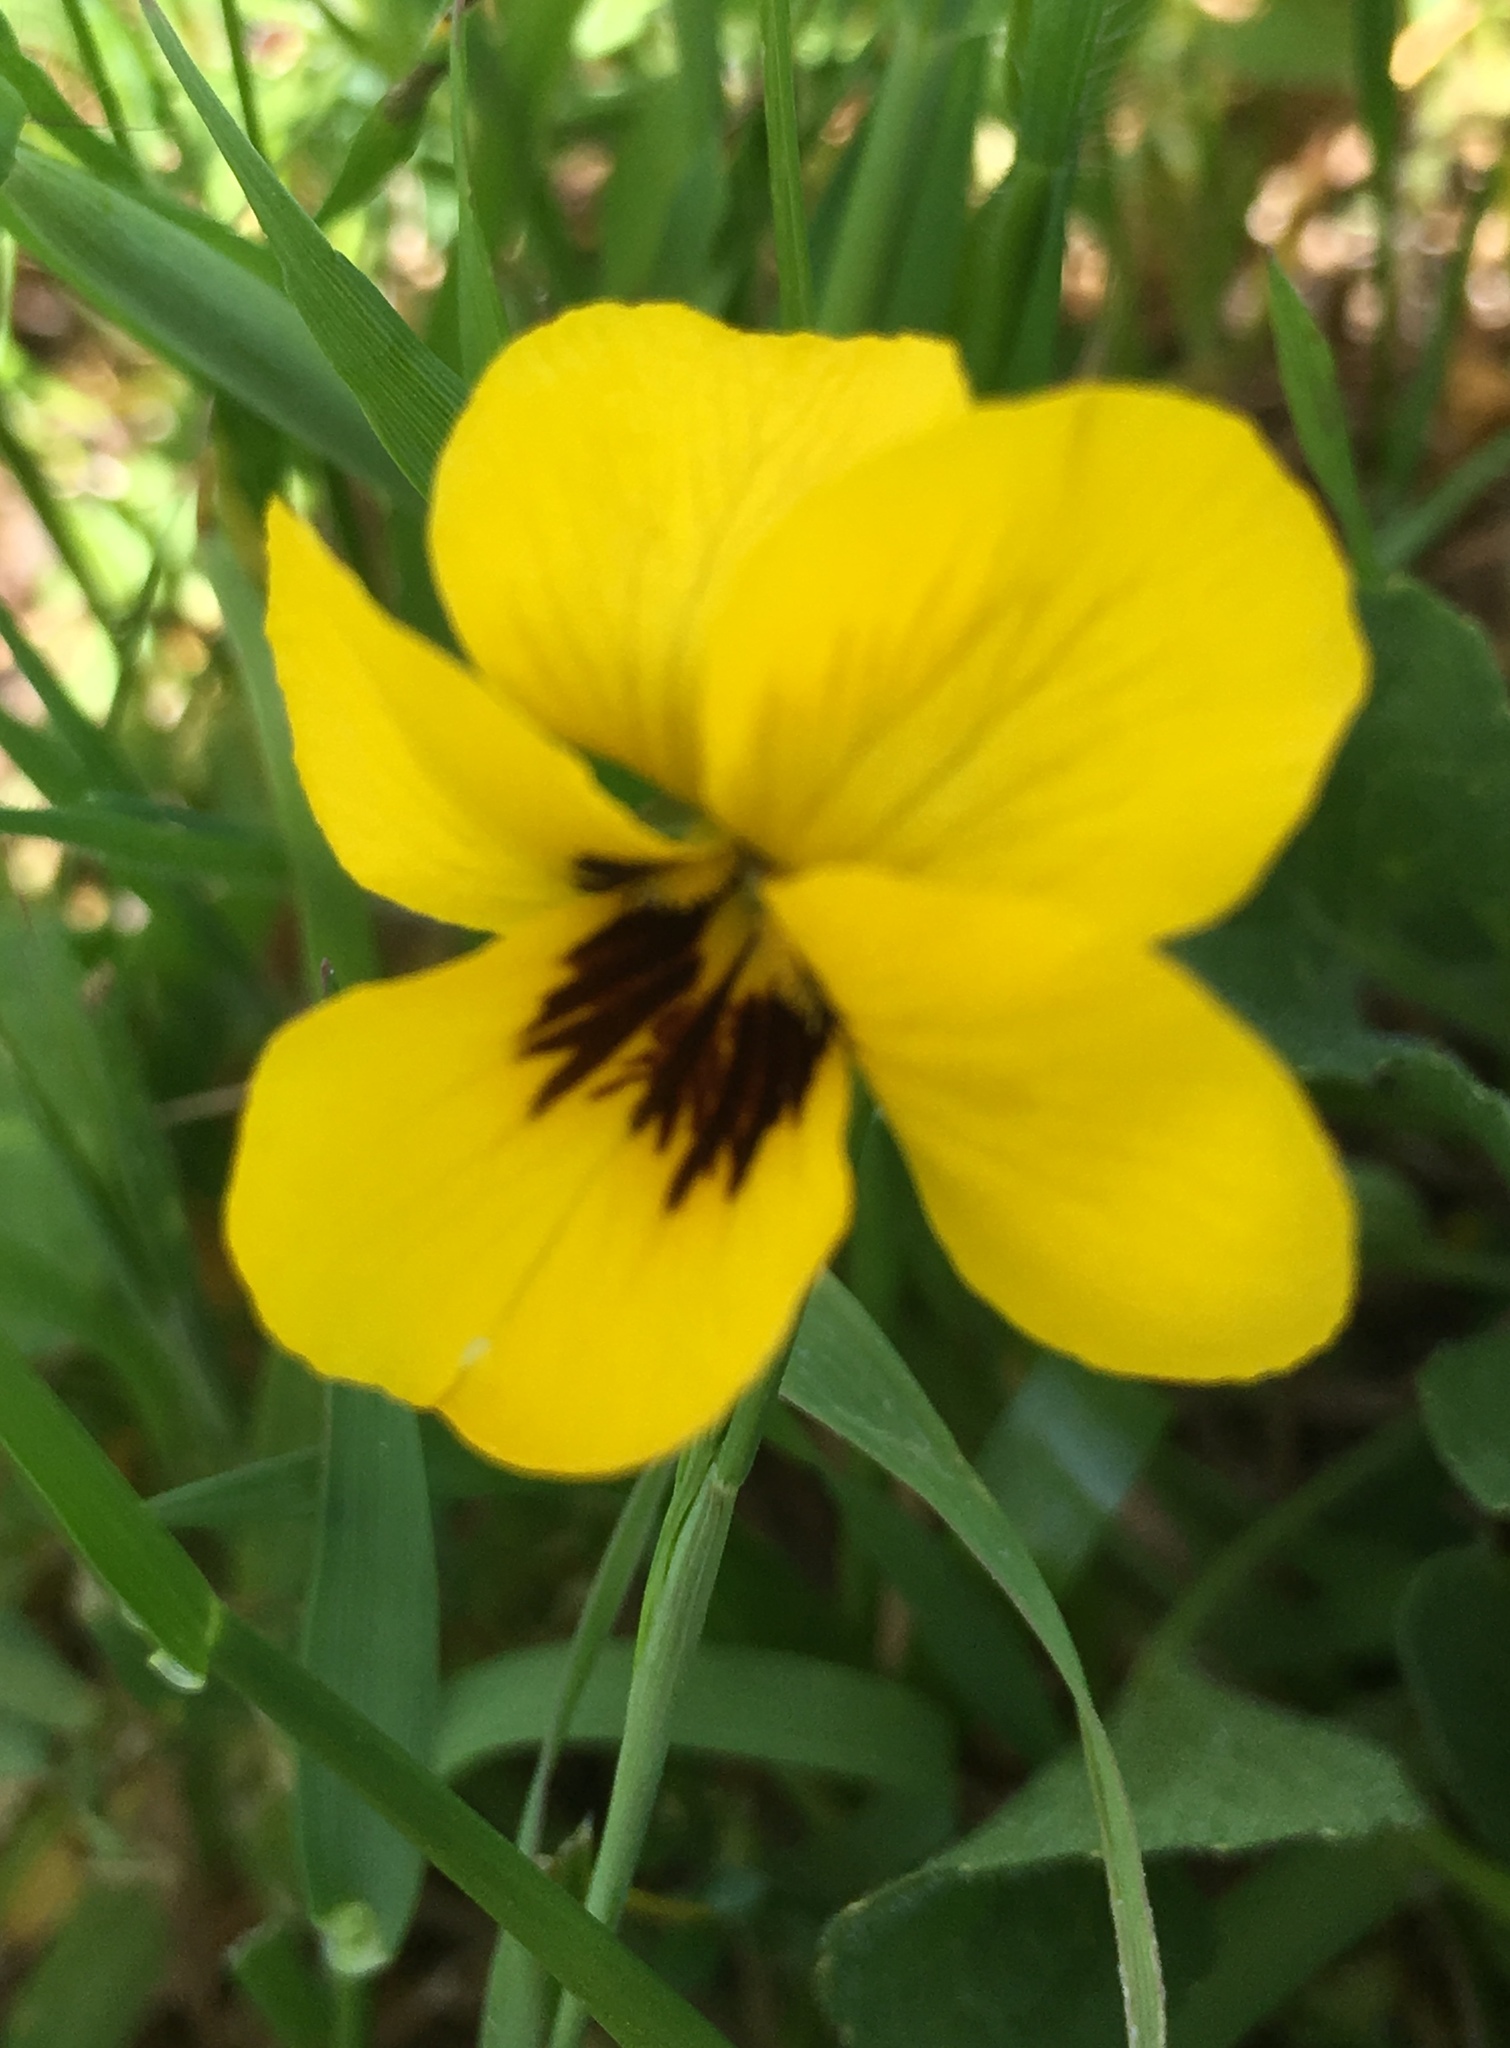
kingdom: Plantae
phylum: Tracheophyta
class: Magnoliopsida
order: Malpighiales
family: Violaceae
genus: Viola
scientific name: Viola pedunculata
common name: California golden violet
